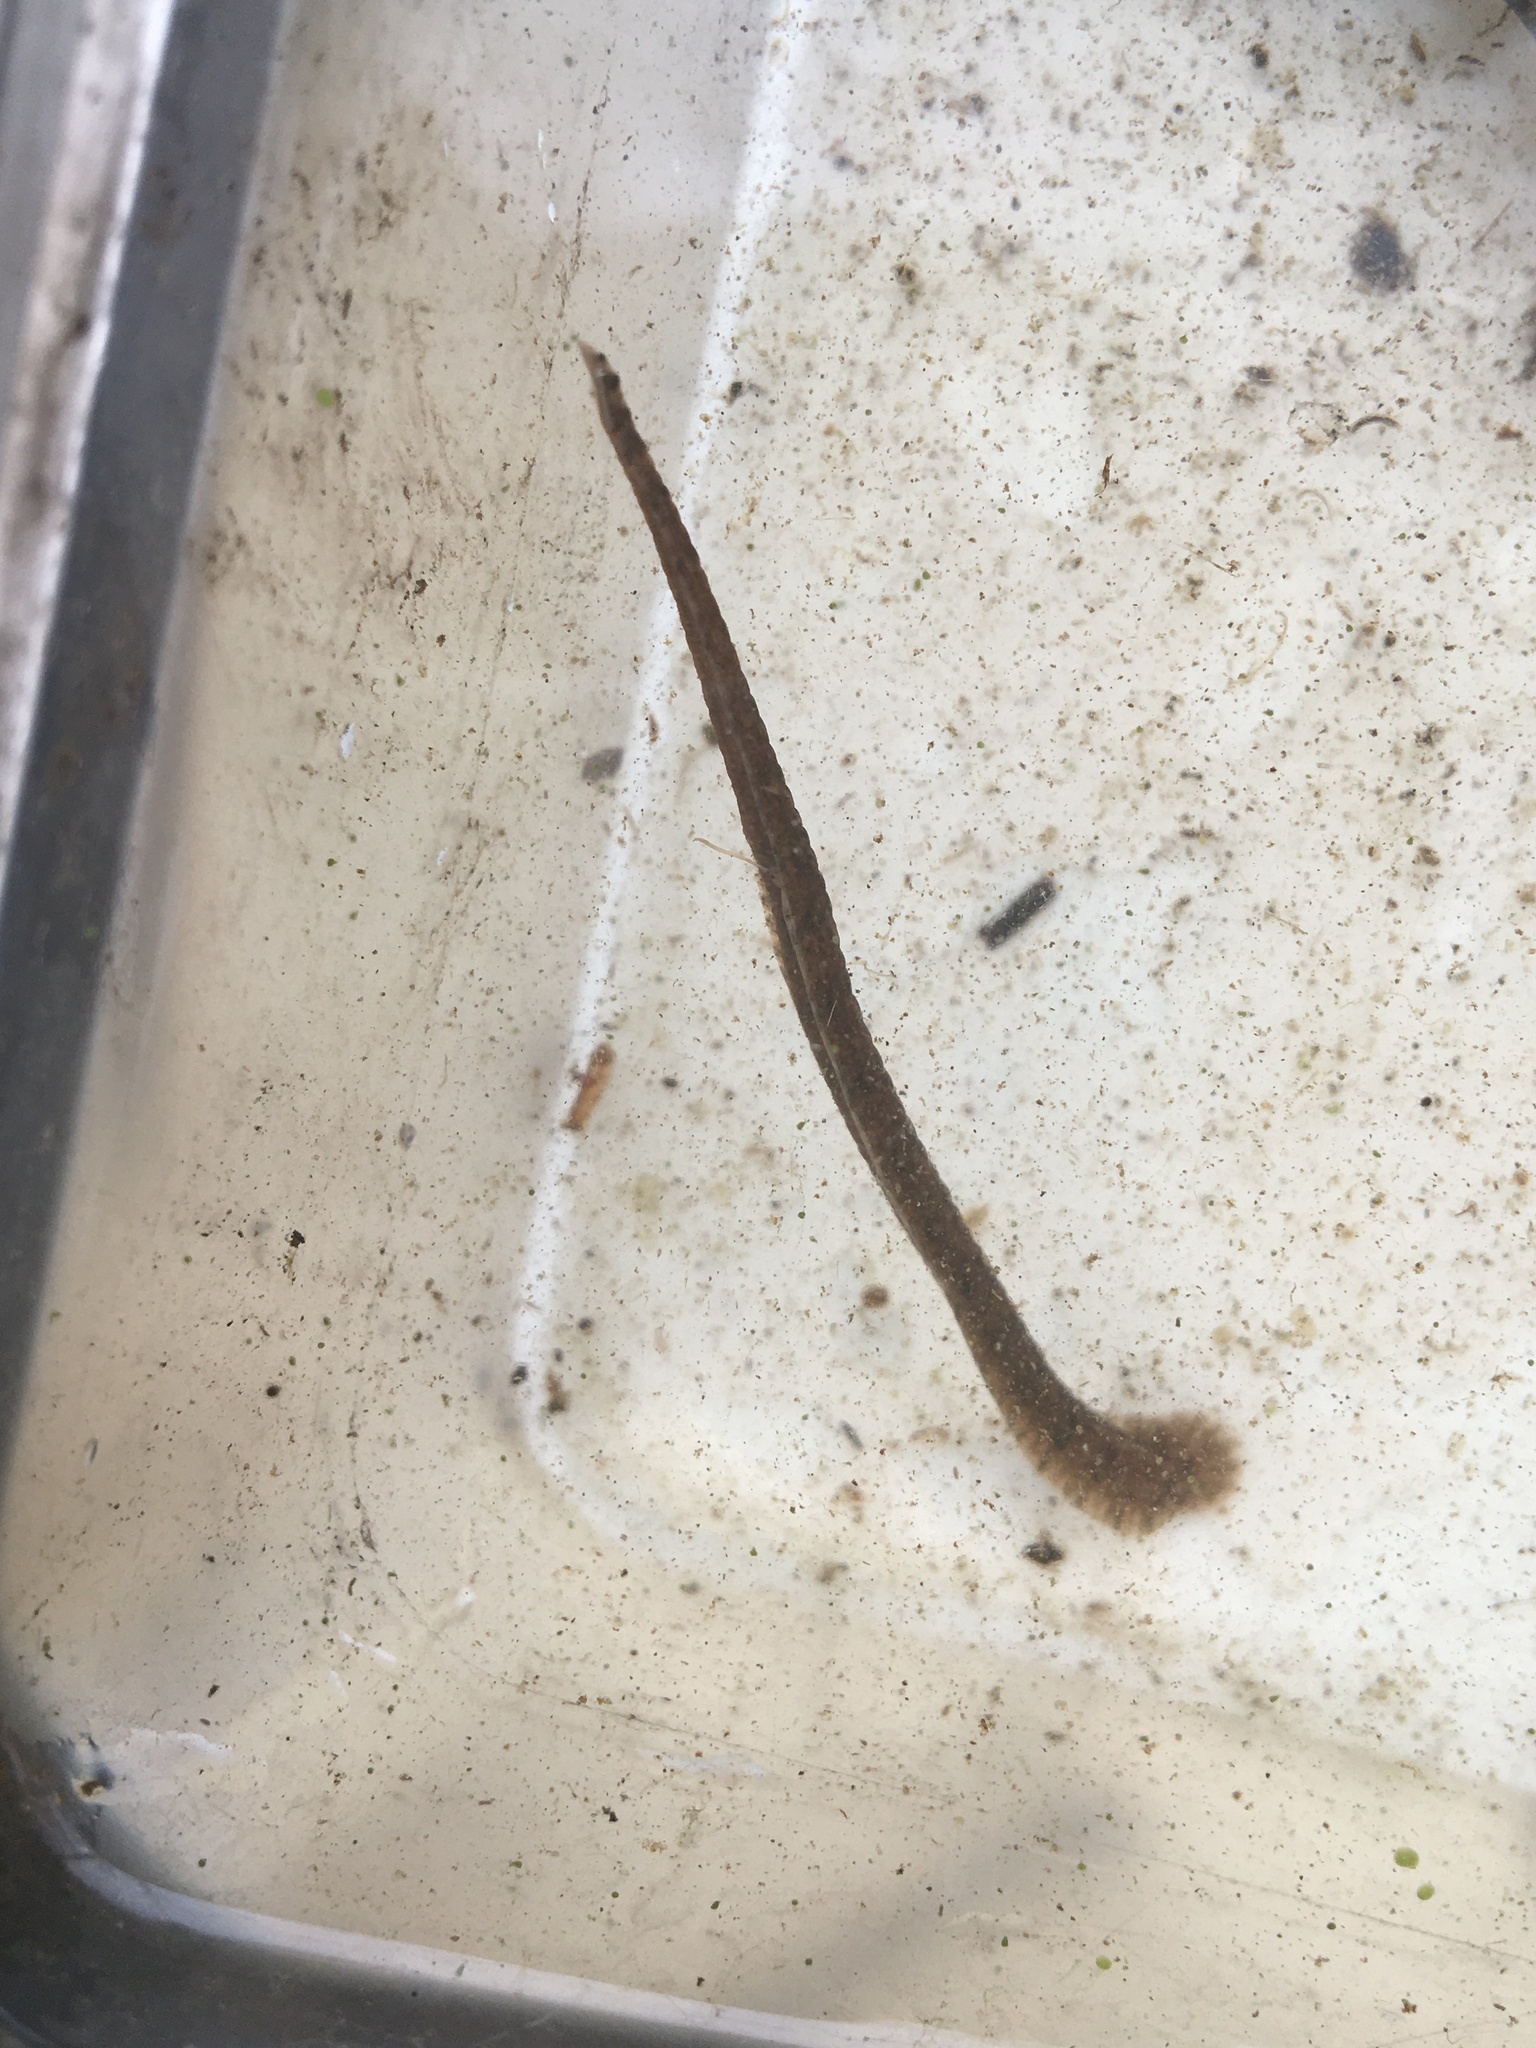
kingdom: Animalia
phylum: Annelida
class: Clitellata
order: Rhynchobdellida
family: Glossiphoniidae
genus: Placobdella
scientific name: Placobdella
